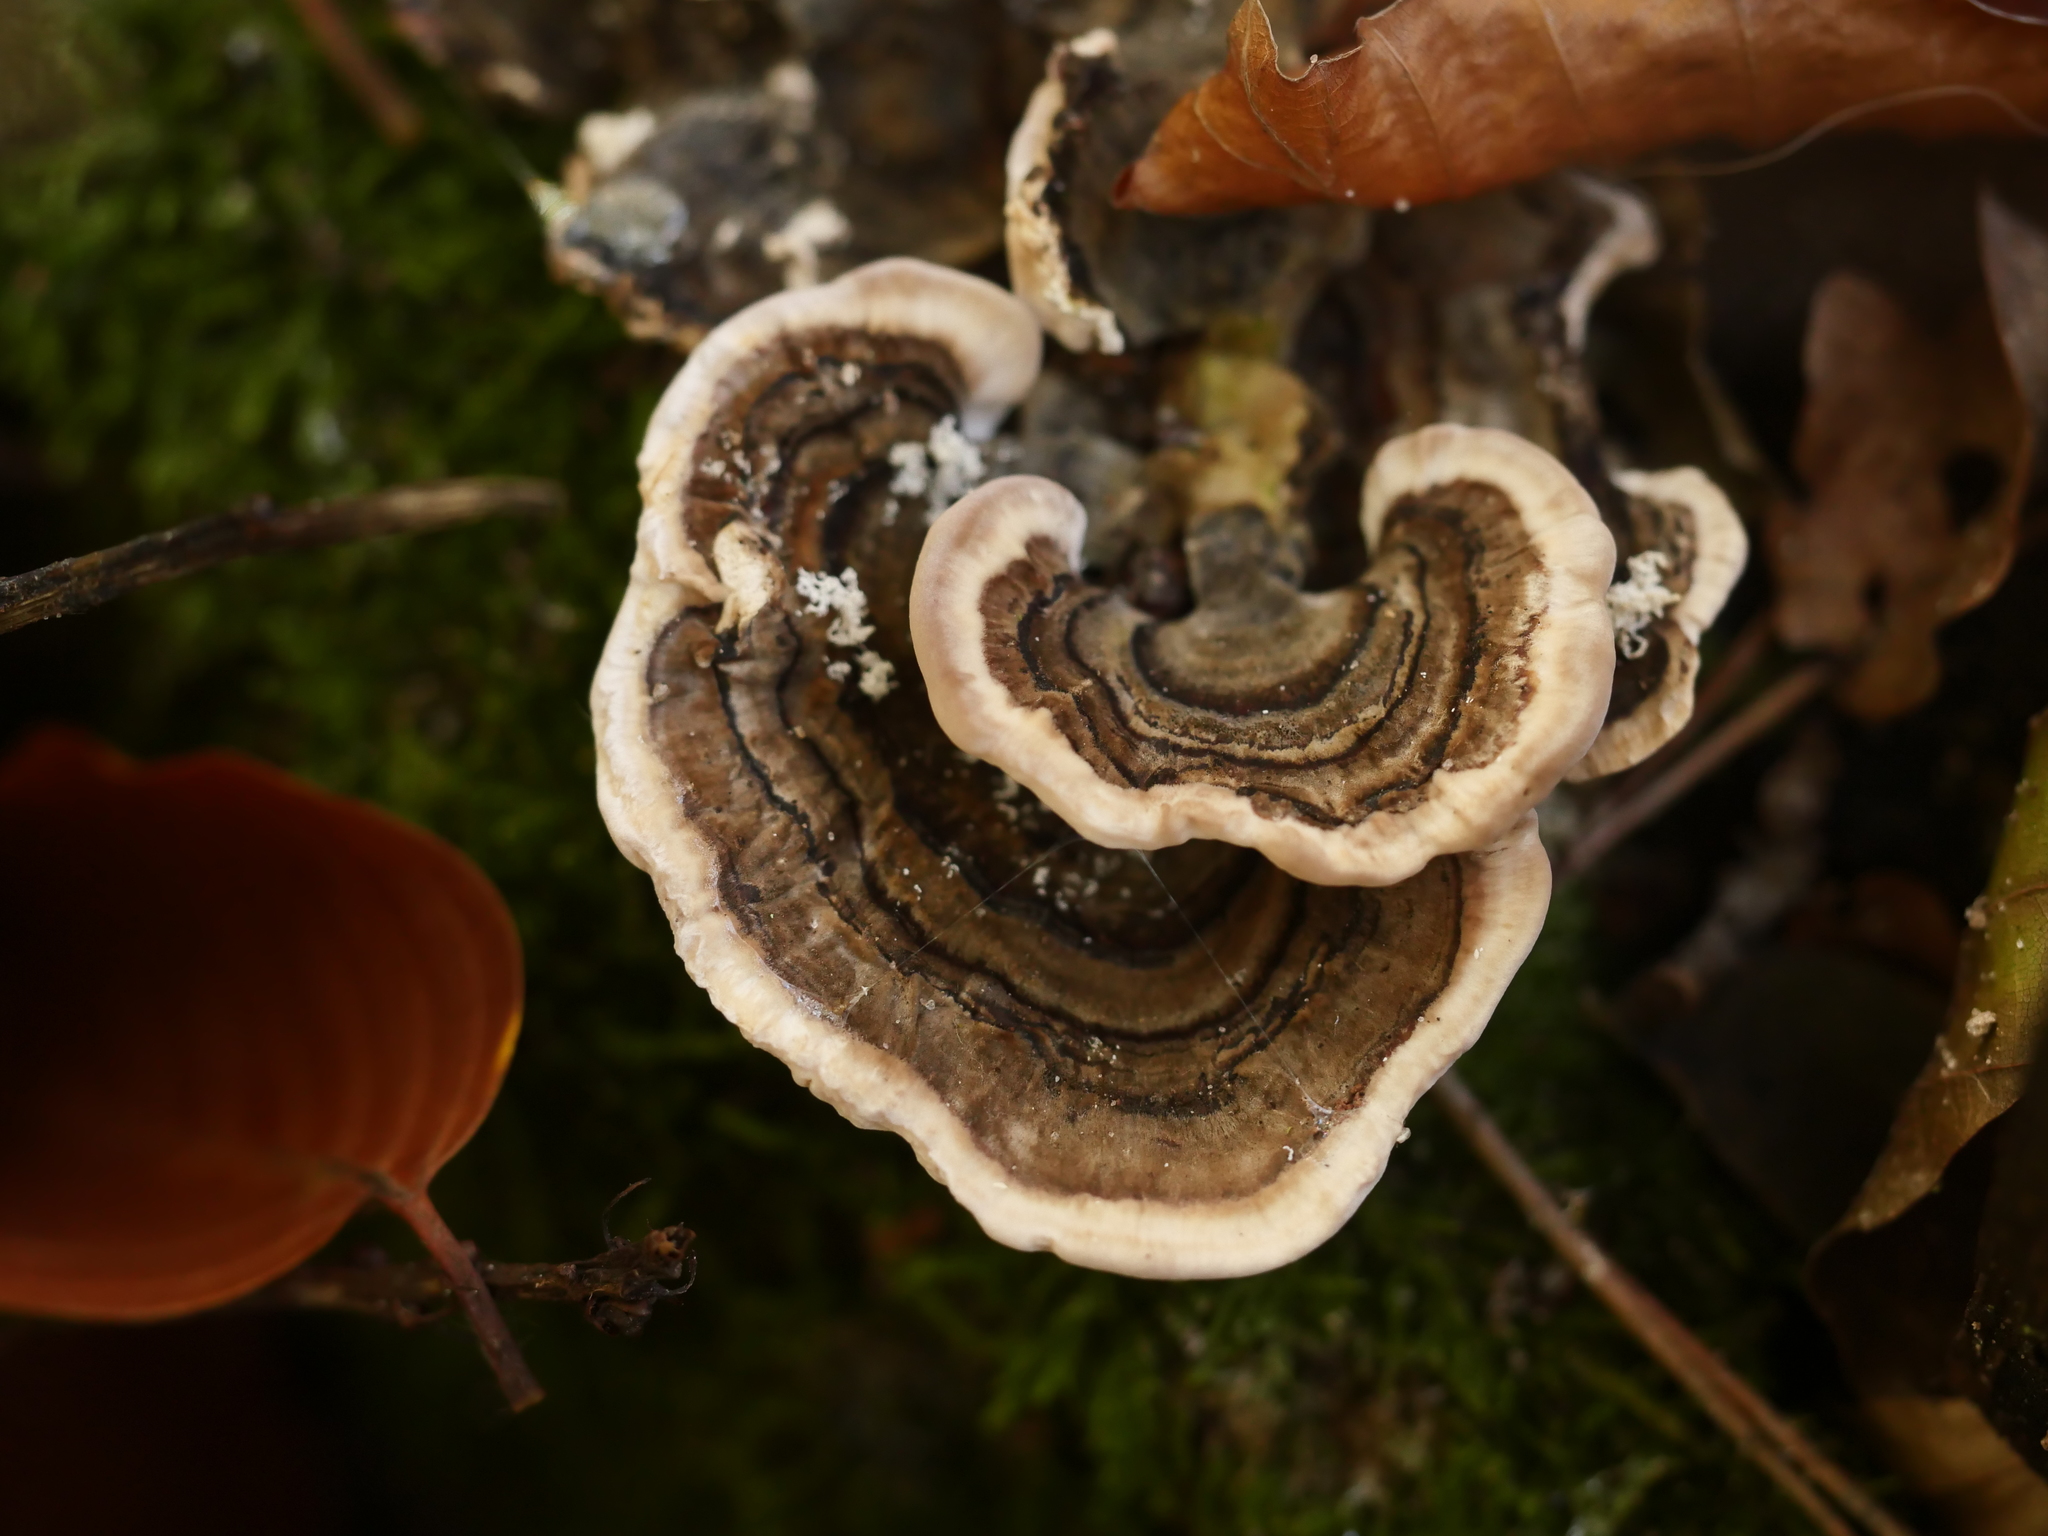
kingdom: Fungi
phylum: Basidiomycota
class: Agaricomycetes
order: Polyporales
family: Polyporaceae
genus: Trametes
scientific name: Trametes versicolor
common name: Turkeytail
